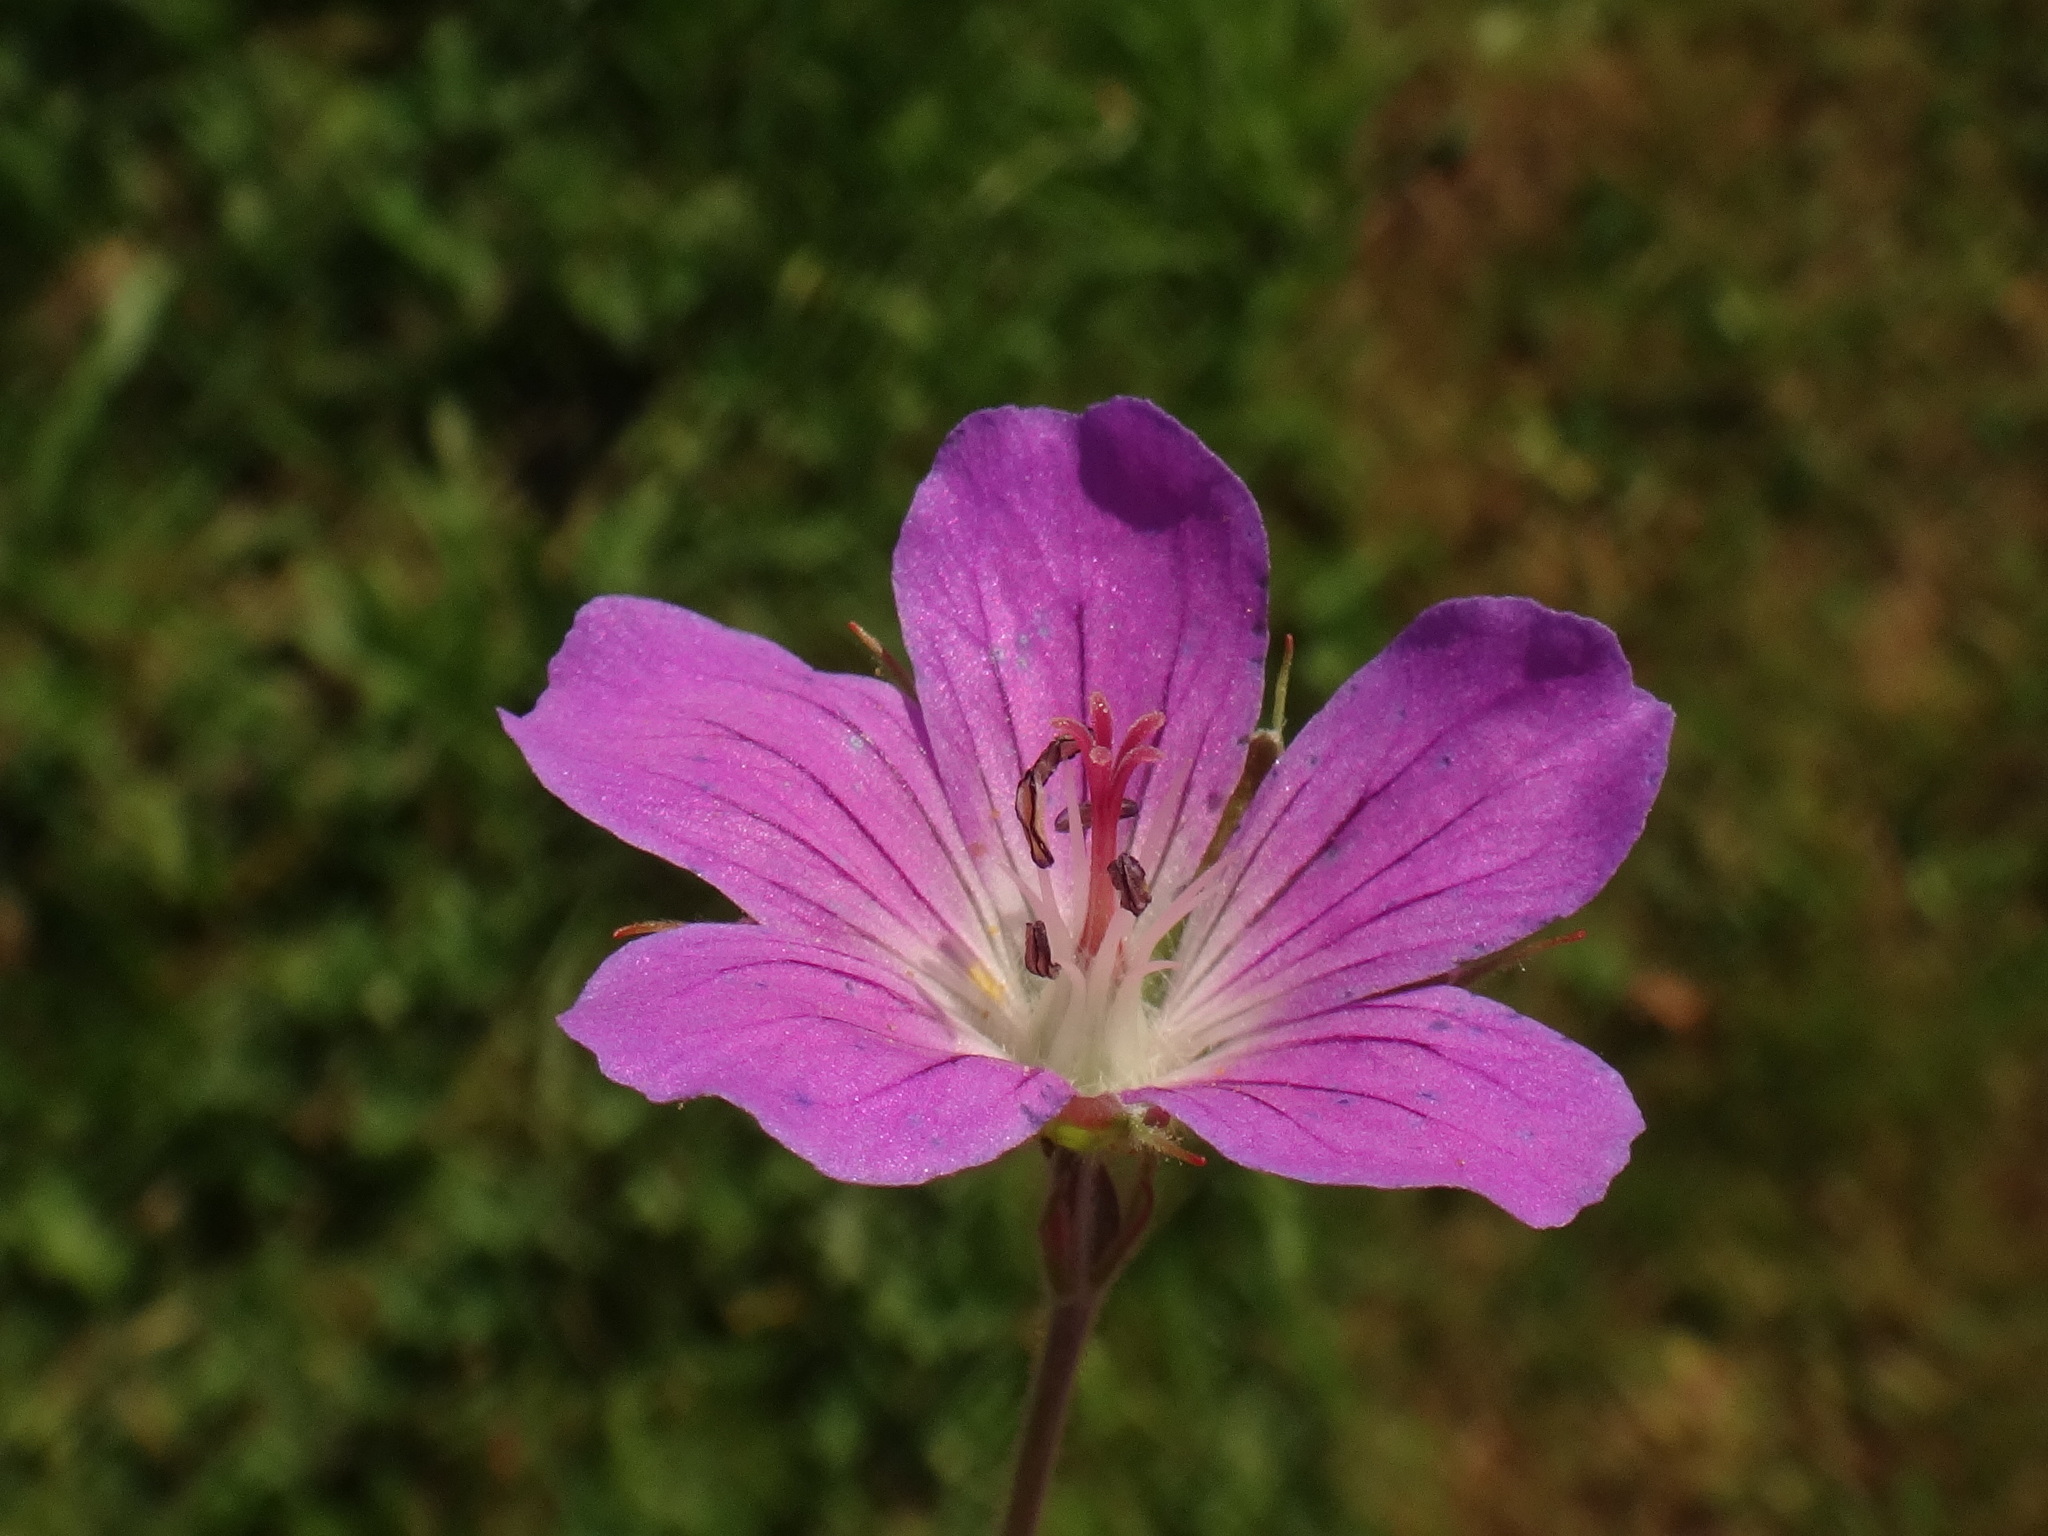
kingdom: Plantae
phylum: Tracheophyta
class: Magnoliopsida
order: Geraniales
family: Geraniaceae
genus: Geranium
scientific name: Geranium sylvaticum
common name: Wood crane's-bill
